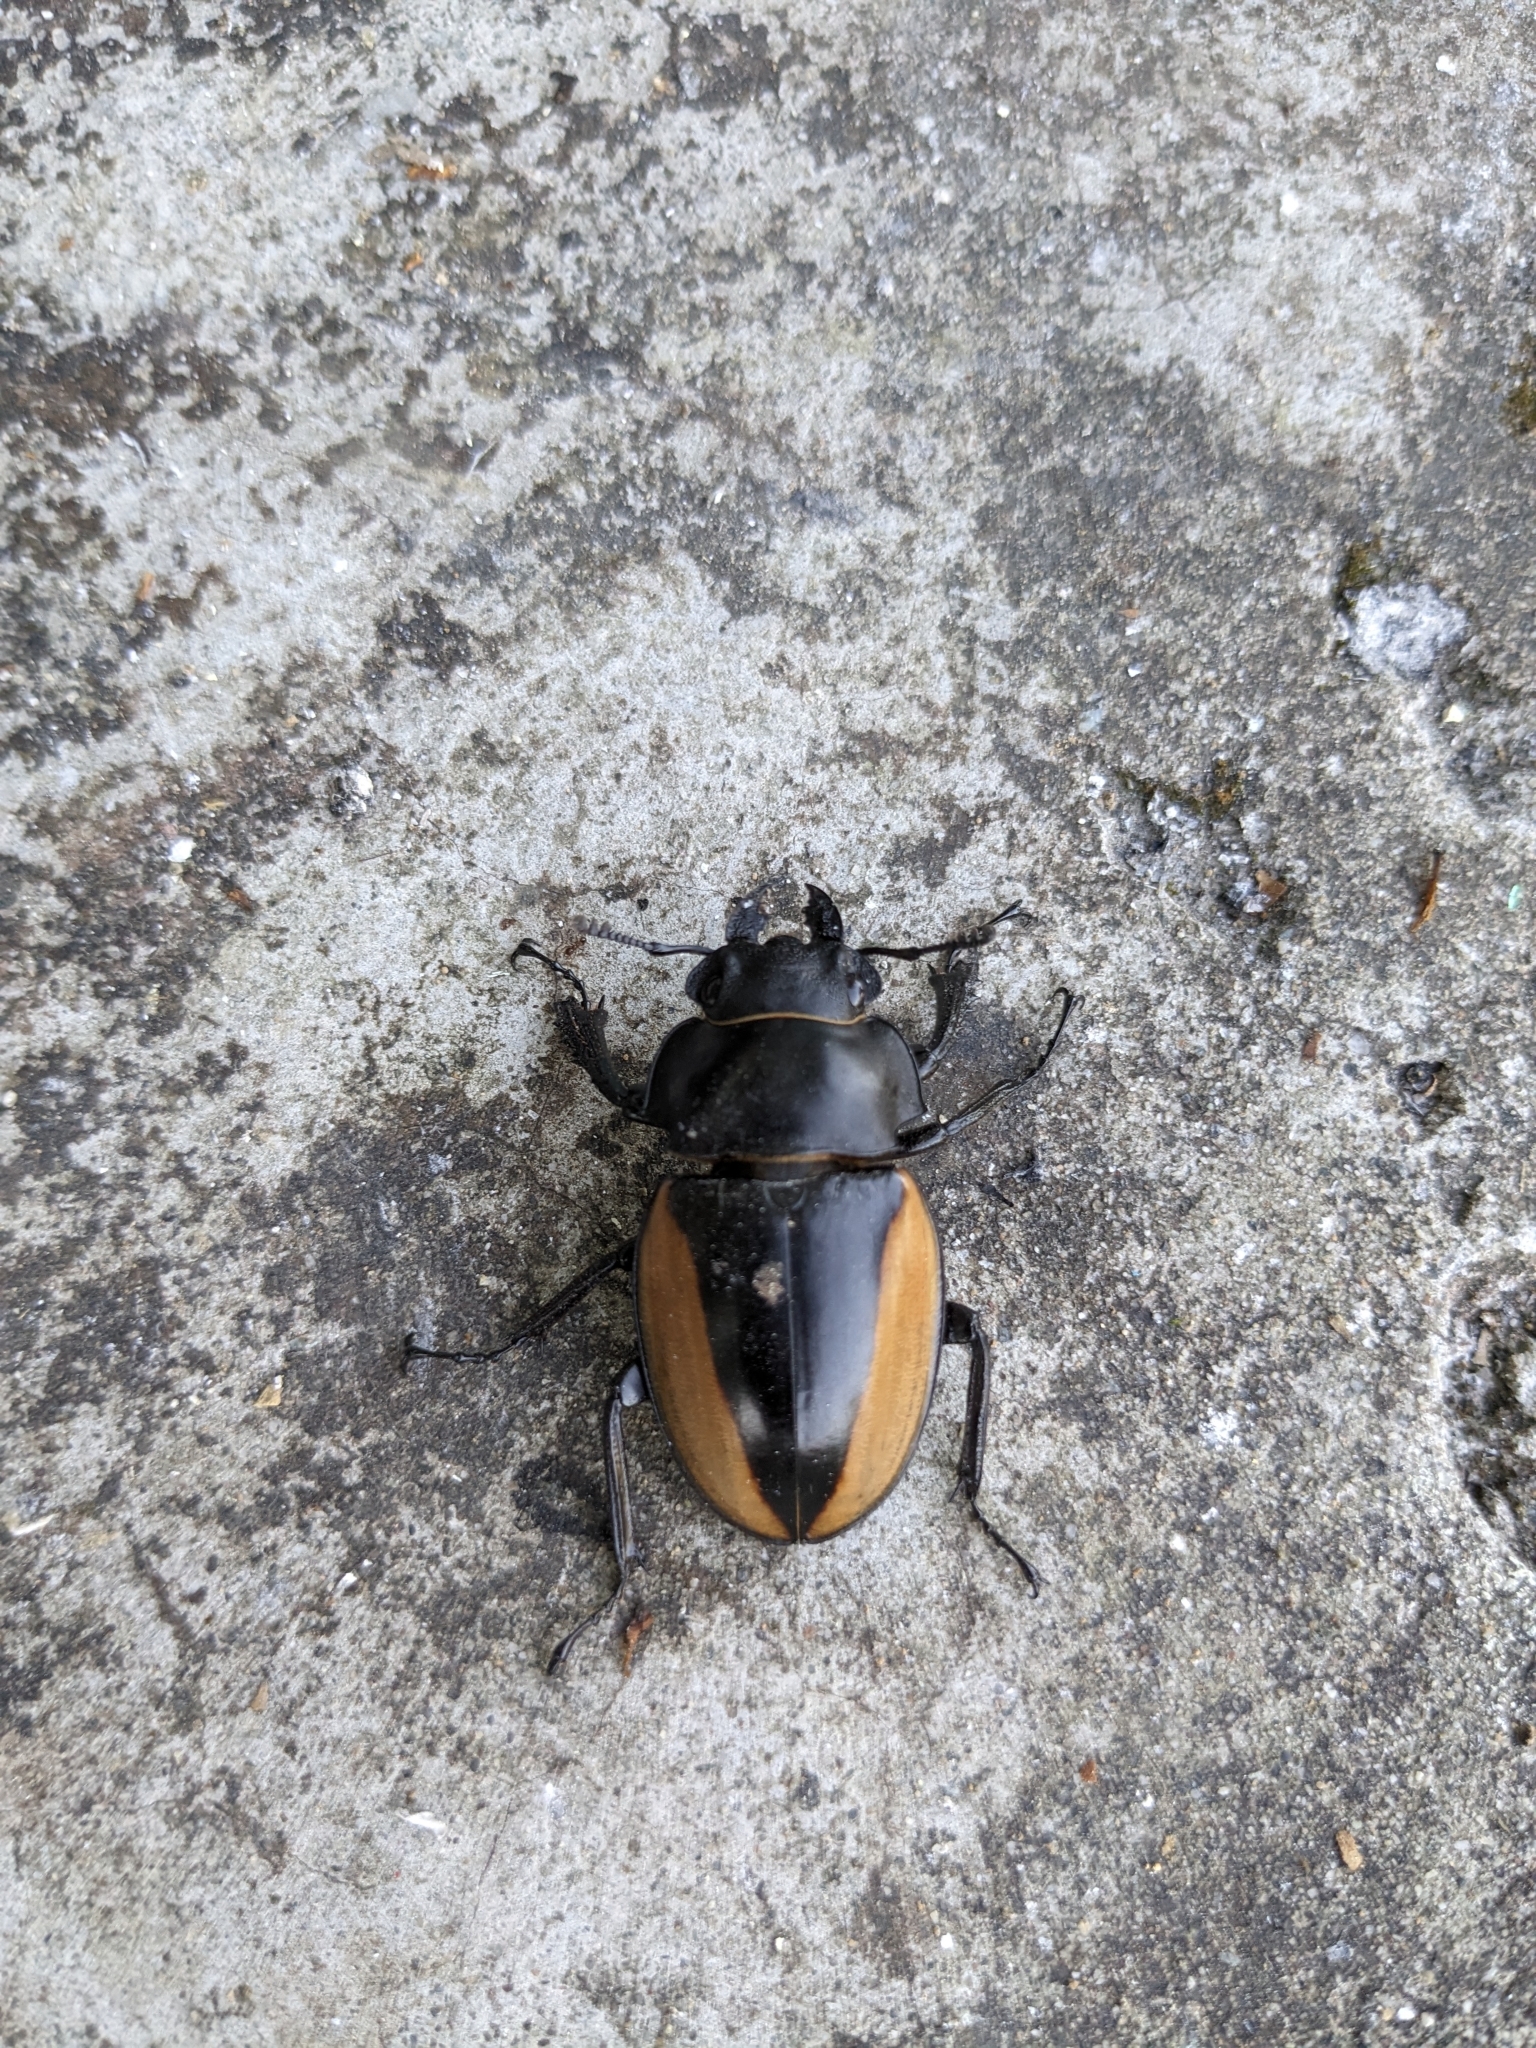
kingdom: Animalia
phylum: Arthropoda
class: Insecta
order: Coleoptera
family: Lucanidae
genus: Odontolabis
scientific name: Odontolabis cuvera
